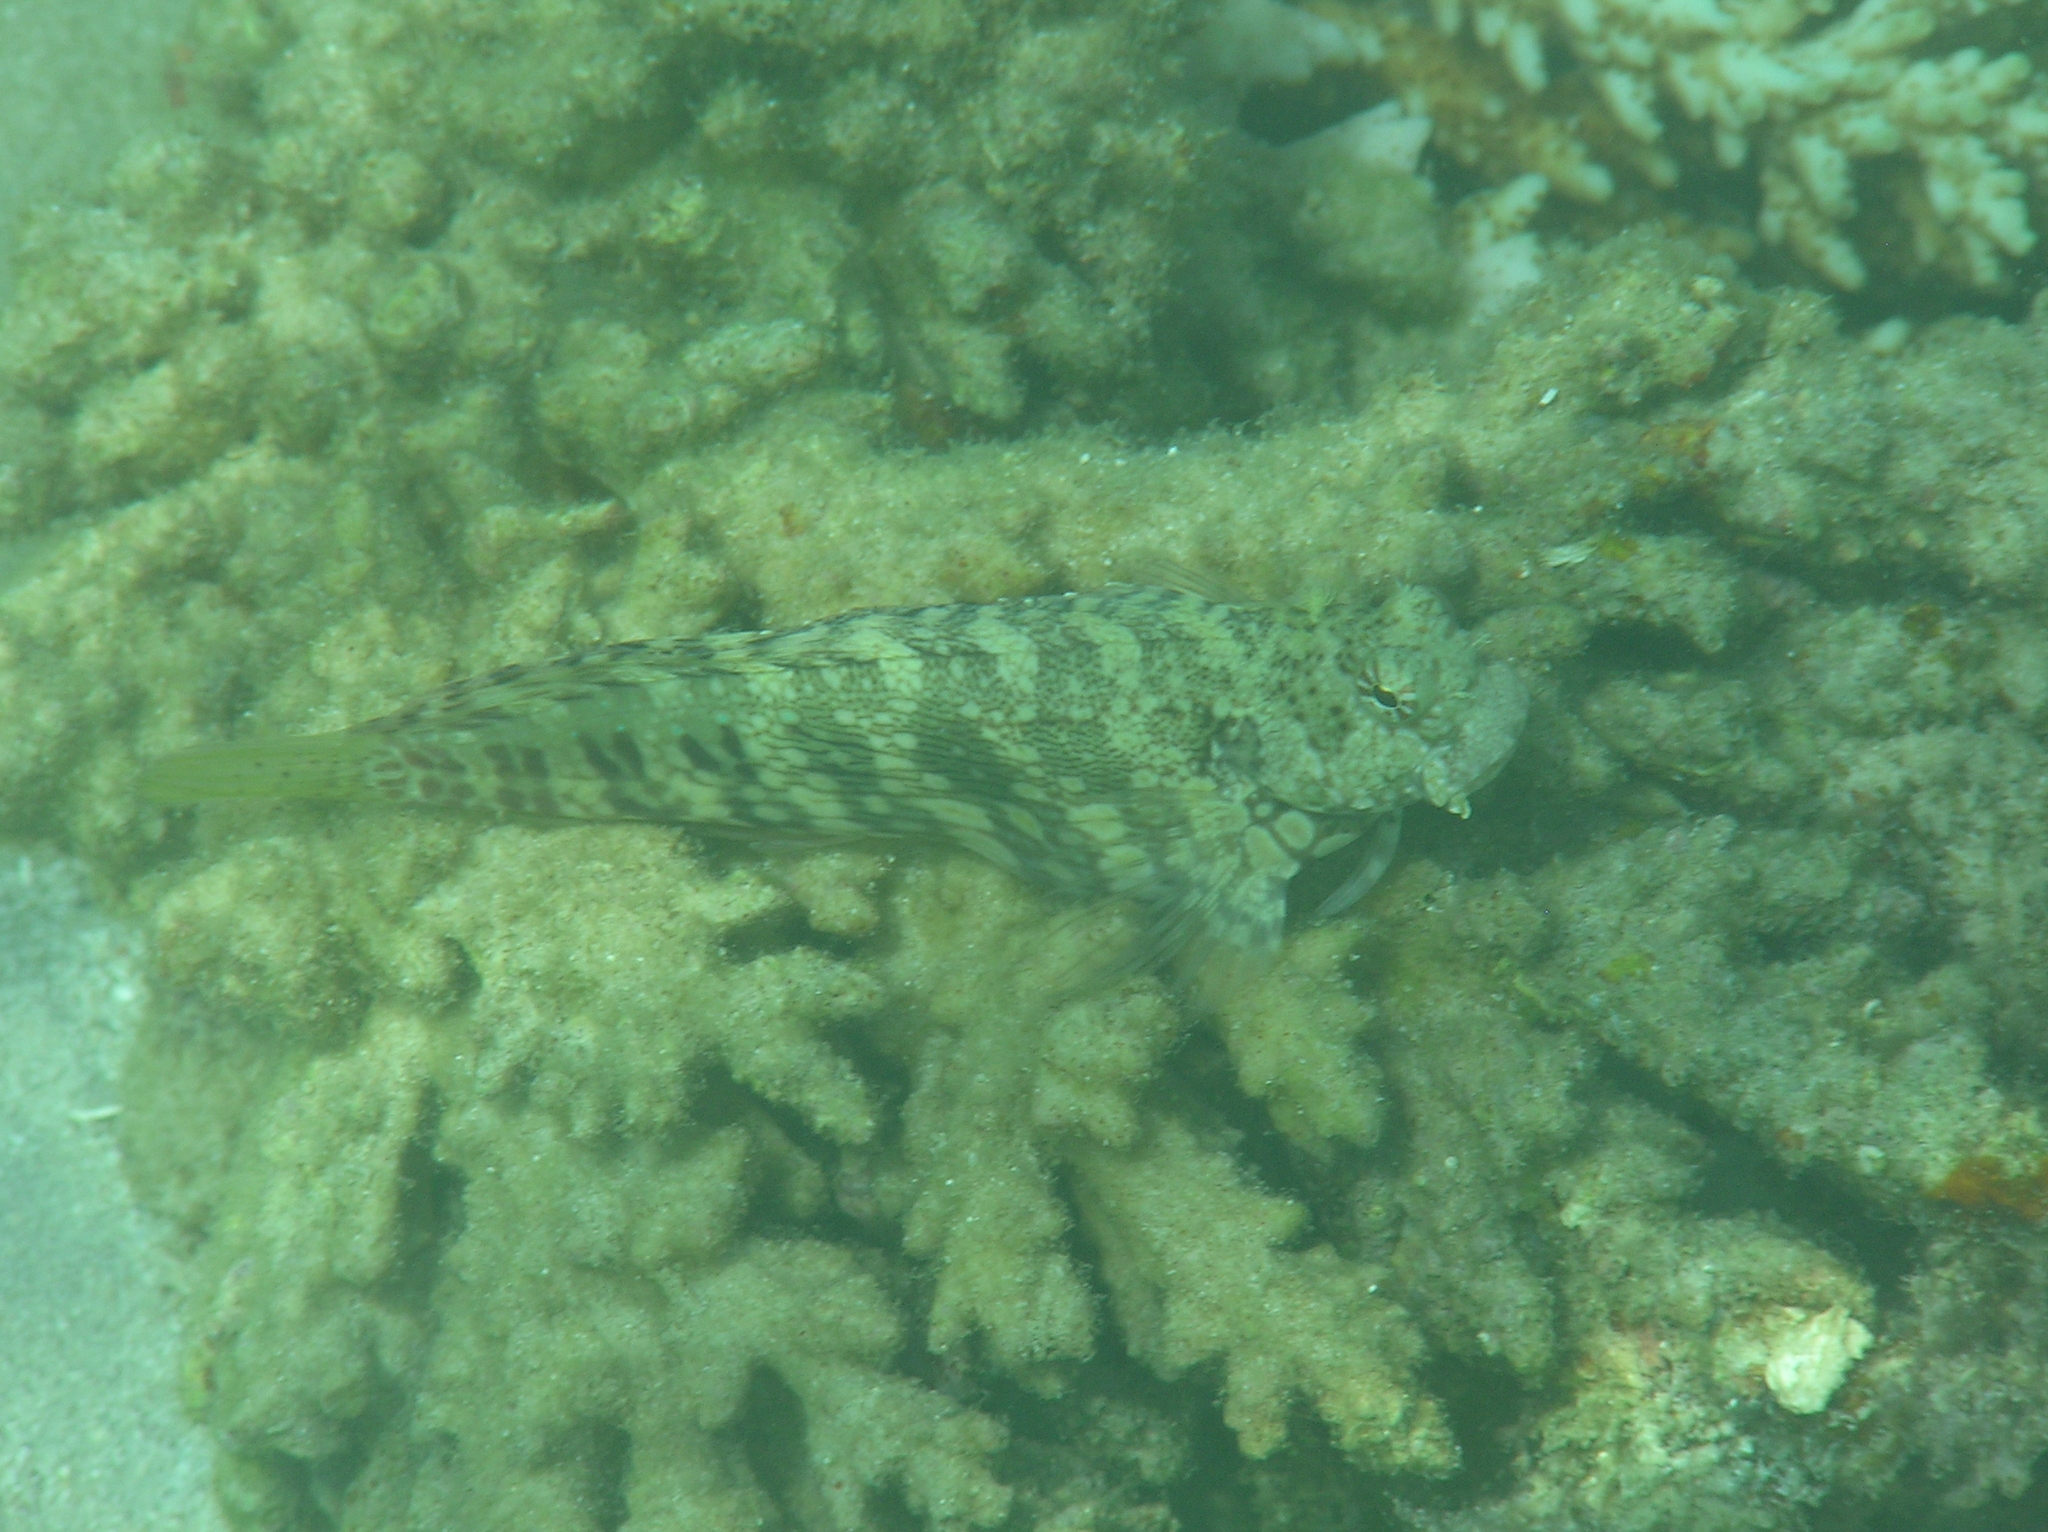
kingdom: Animalia
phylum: Chordata
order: Perciformes
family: Blenniidae
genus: Salarias
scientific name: Salarias fasciatus
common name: Jewelled blenny
